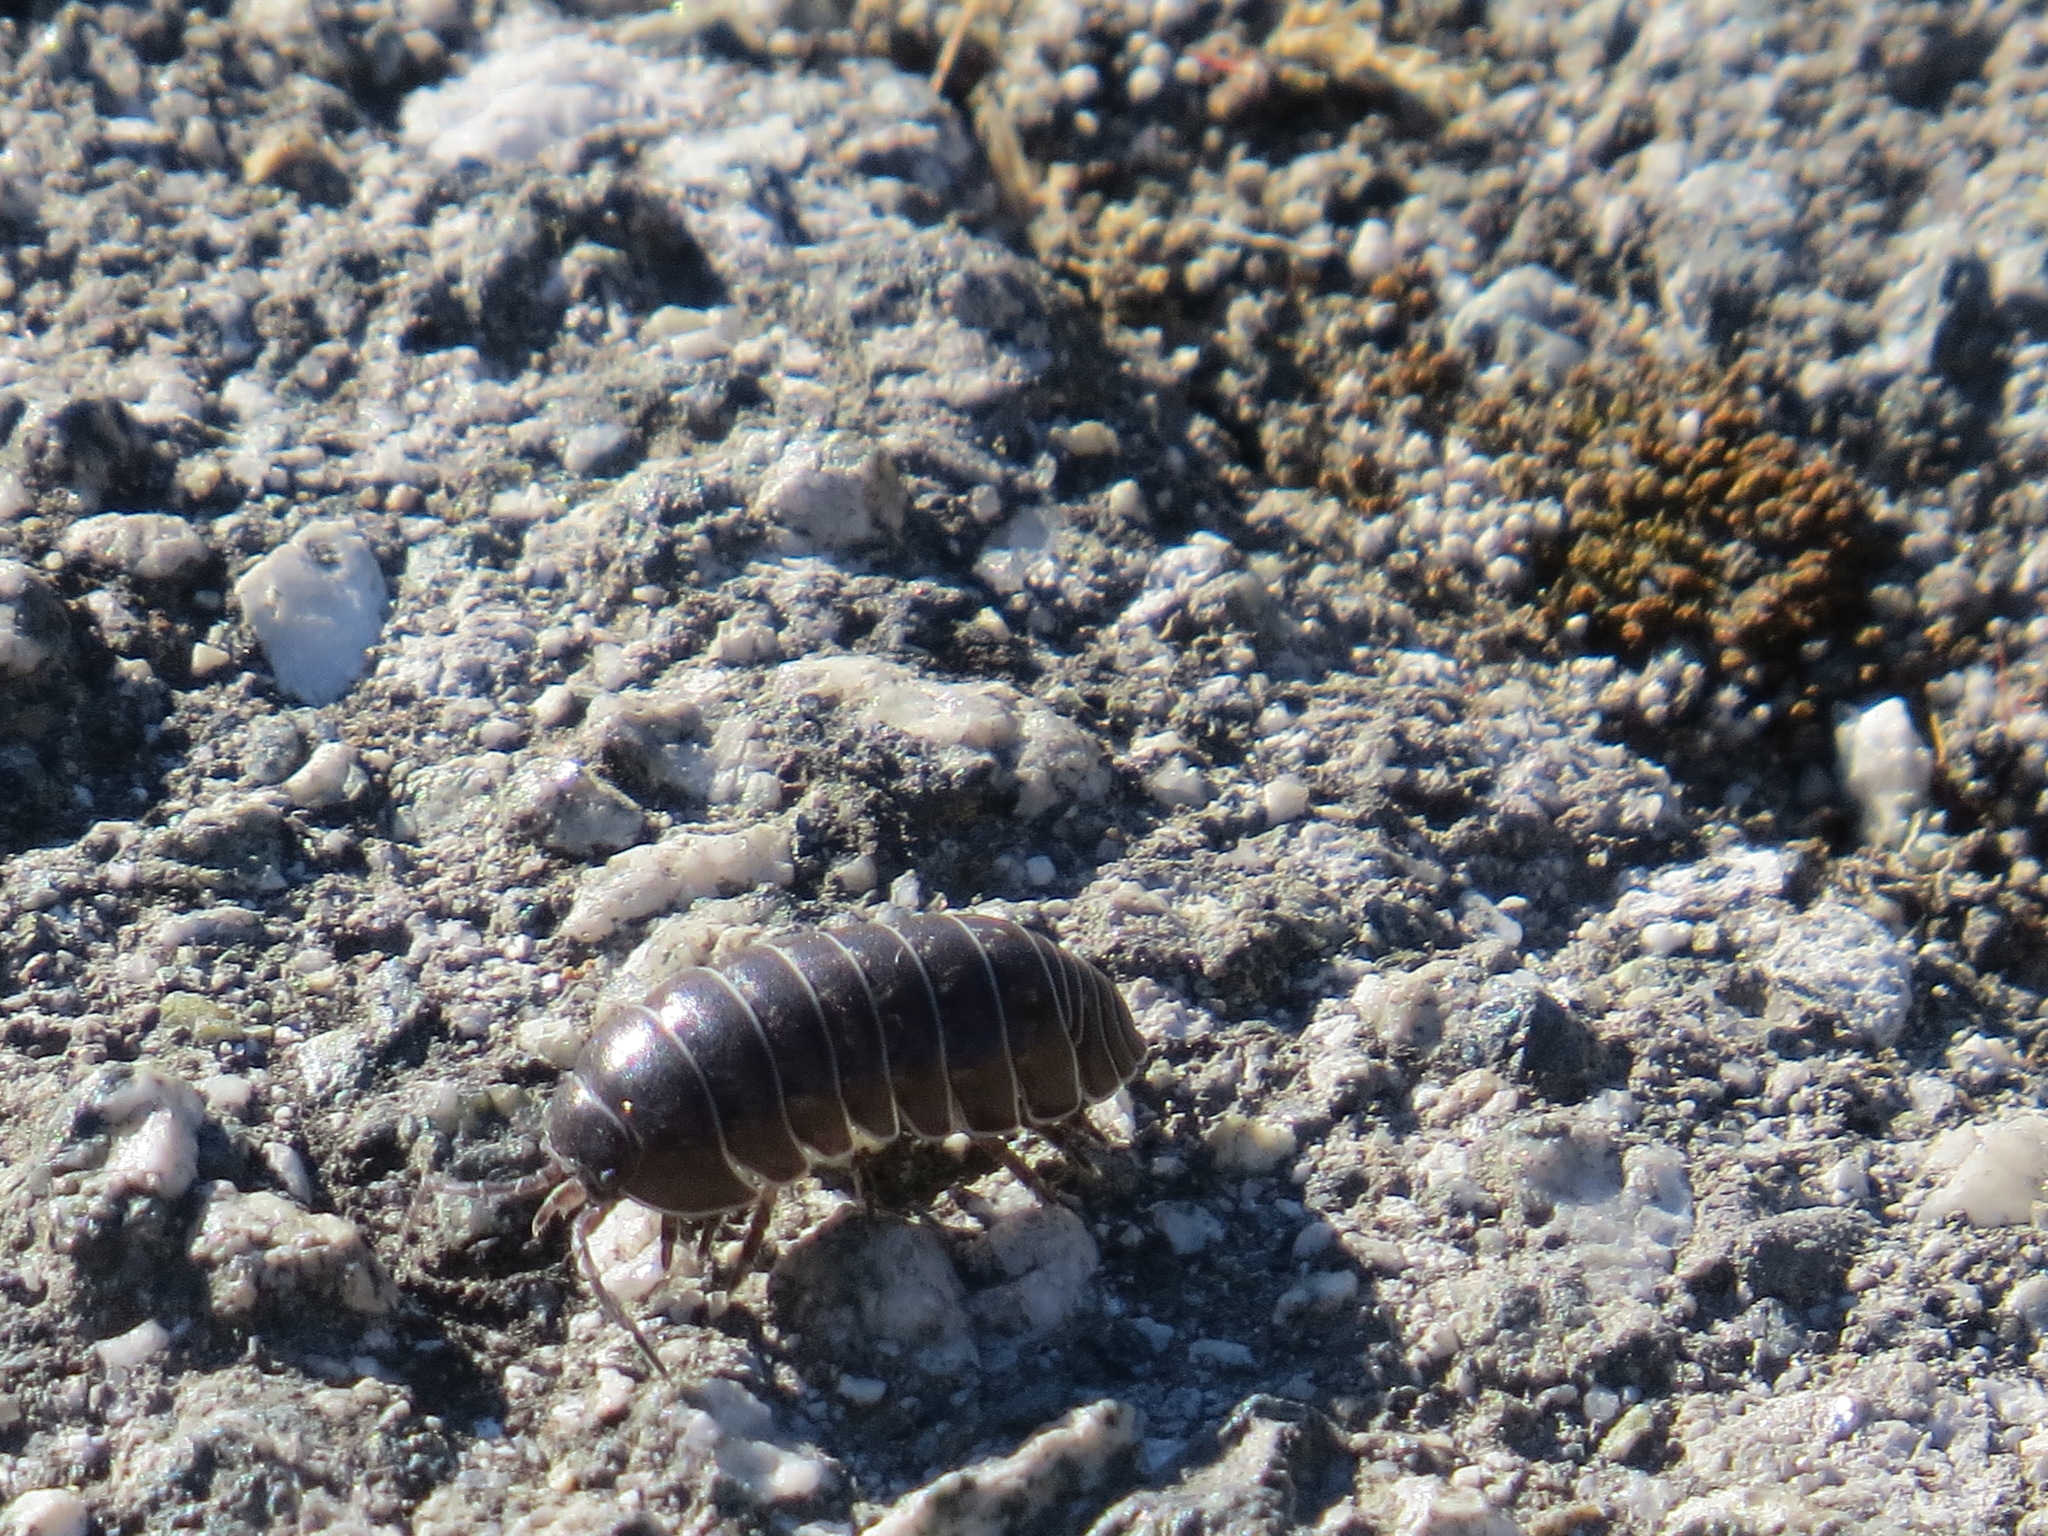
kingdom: Animalia
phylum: Arthropoda
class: Malacostraca
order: Isopoda
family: Armadillidiidae
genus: Armadillidium
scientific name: Armadillidium vulgare
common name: Common pill woodlouse
